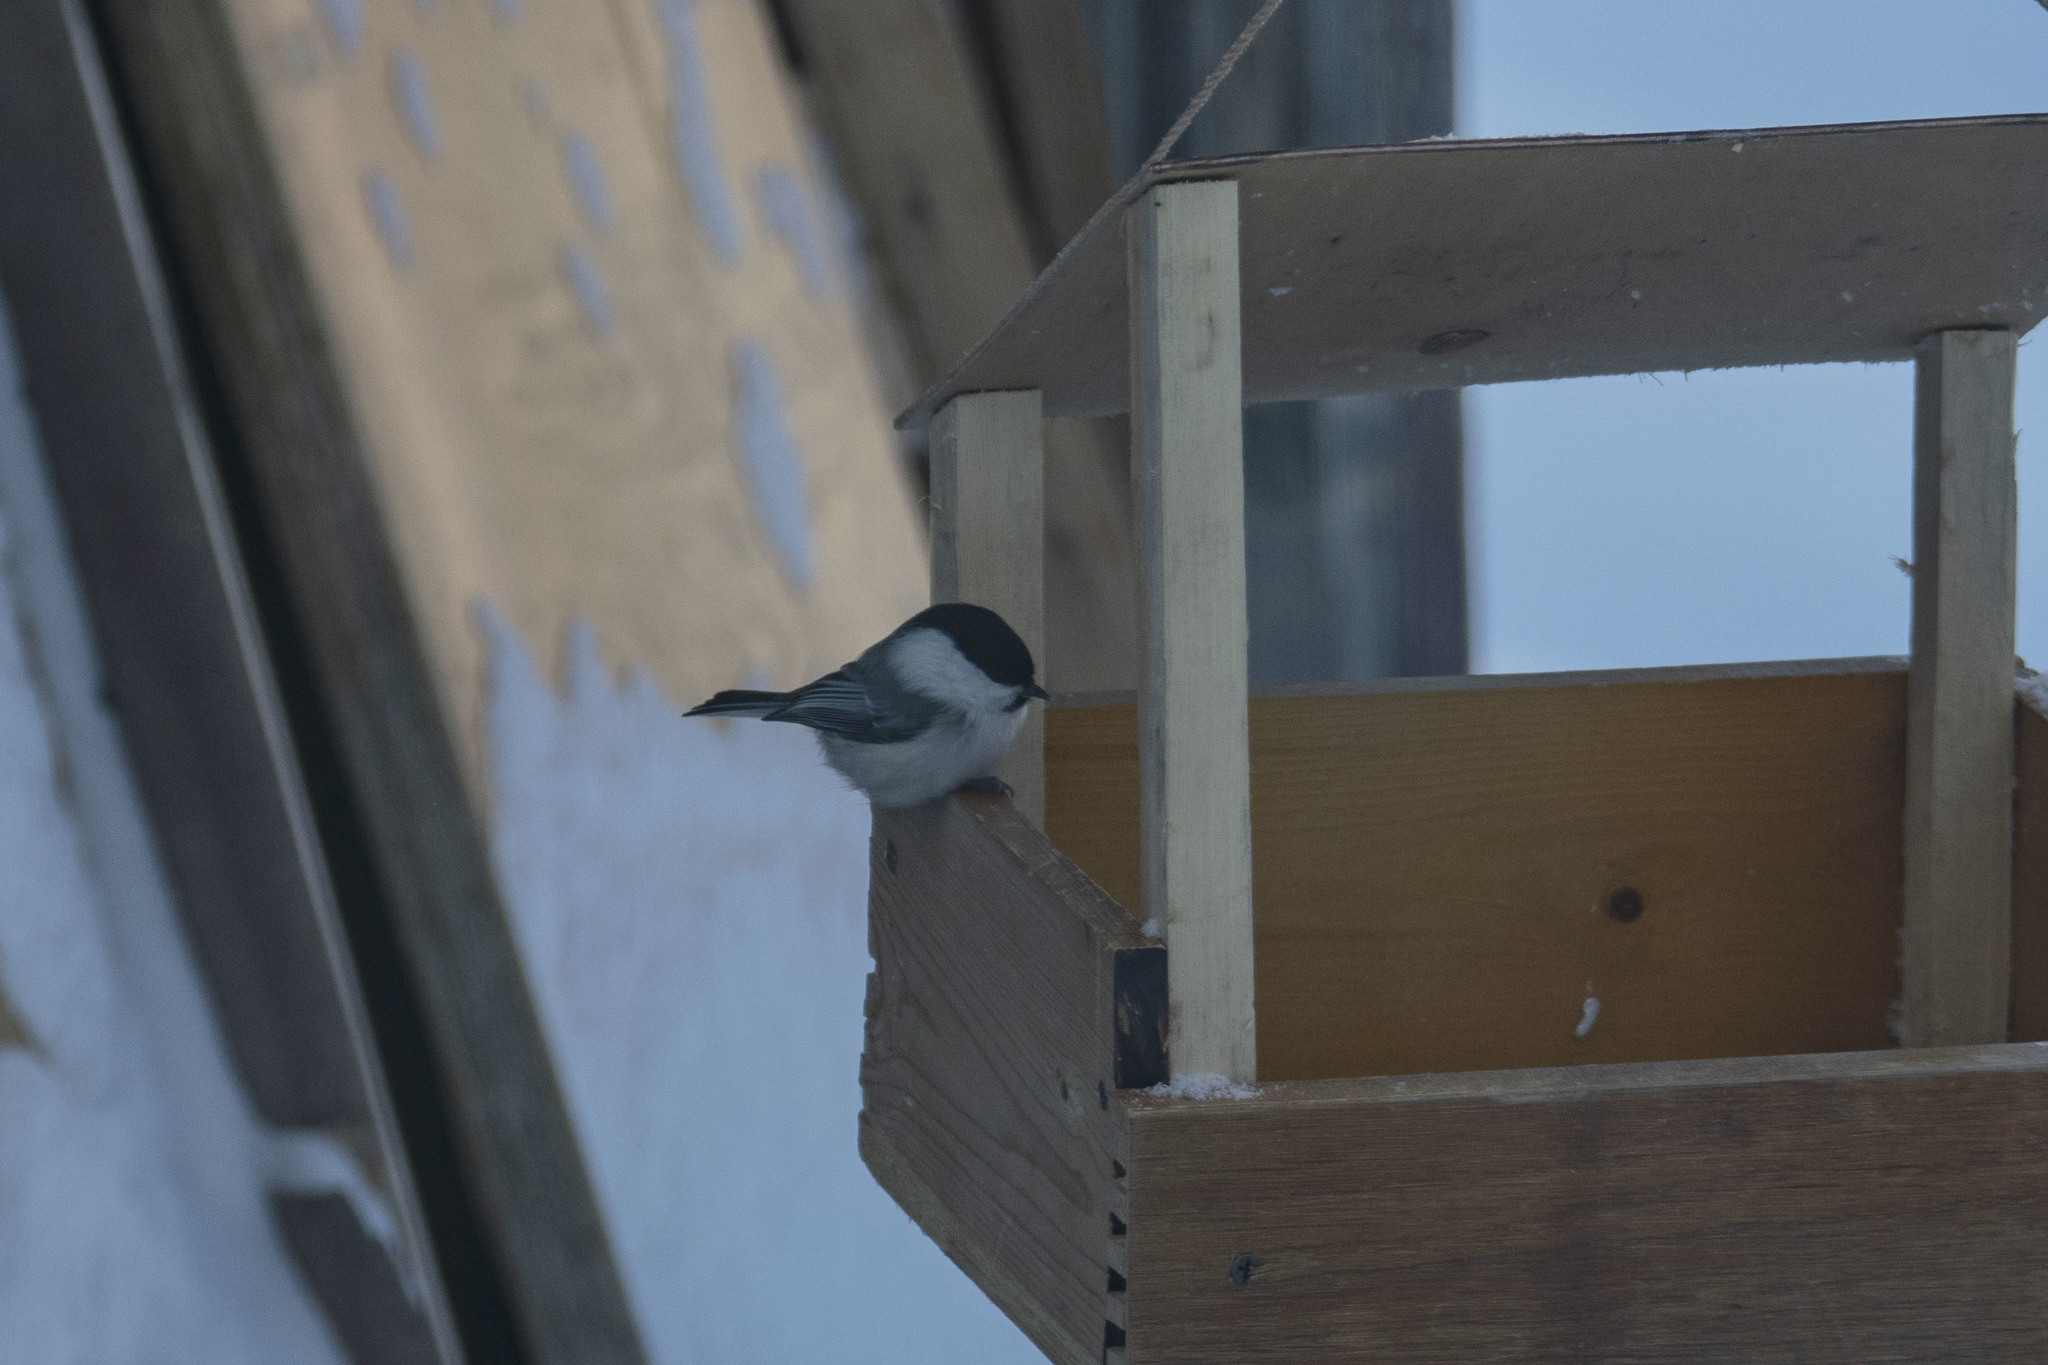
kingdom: Animalia
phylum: Chordata
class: Aves
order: Passeriformes
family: Paridae
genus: Poecile
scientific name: Poecile montanus
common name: Willow tit
